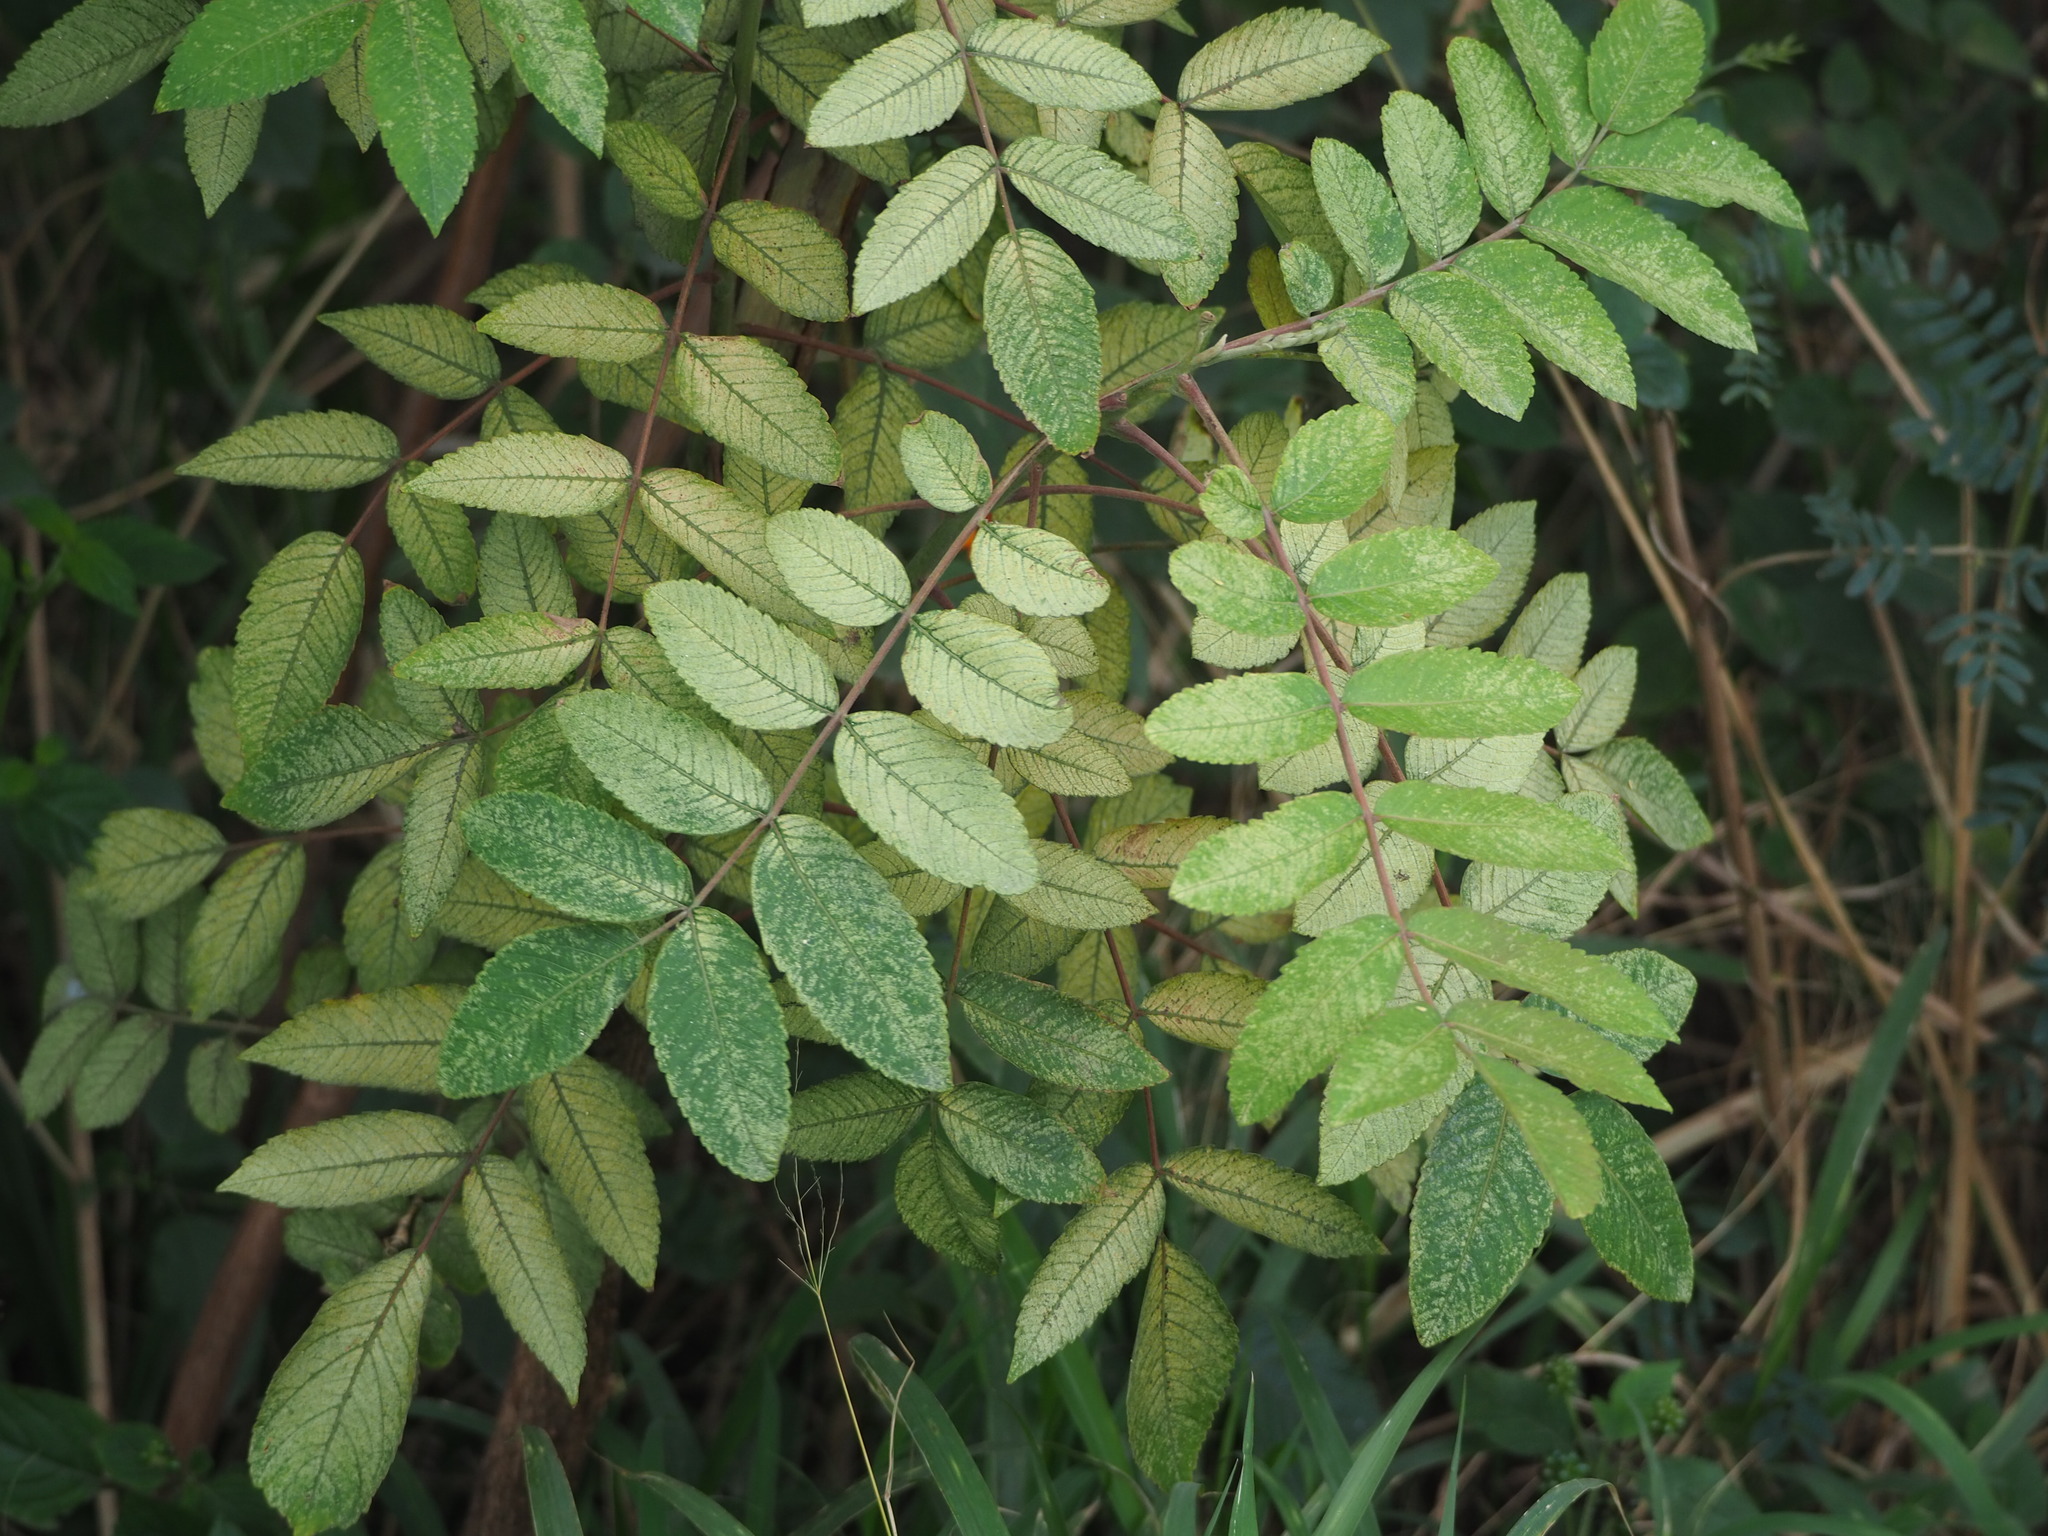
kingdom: Plantae
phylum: Tracheophyta
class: Magnoliopsida
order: Sapindales
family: Anacardiaceae
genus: Rhus
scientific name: Rhus chinensis
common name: Chinese gall
